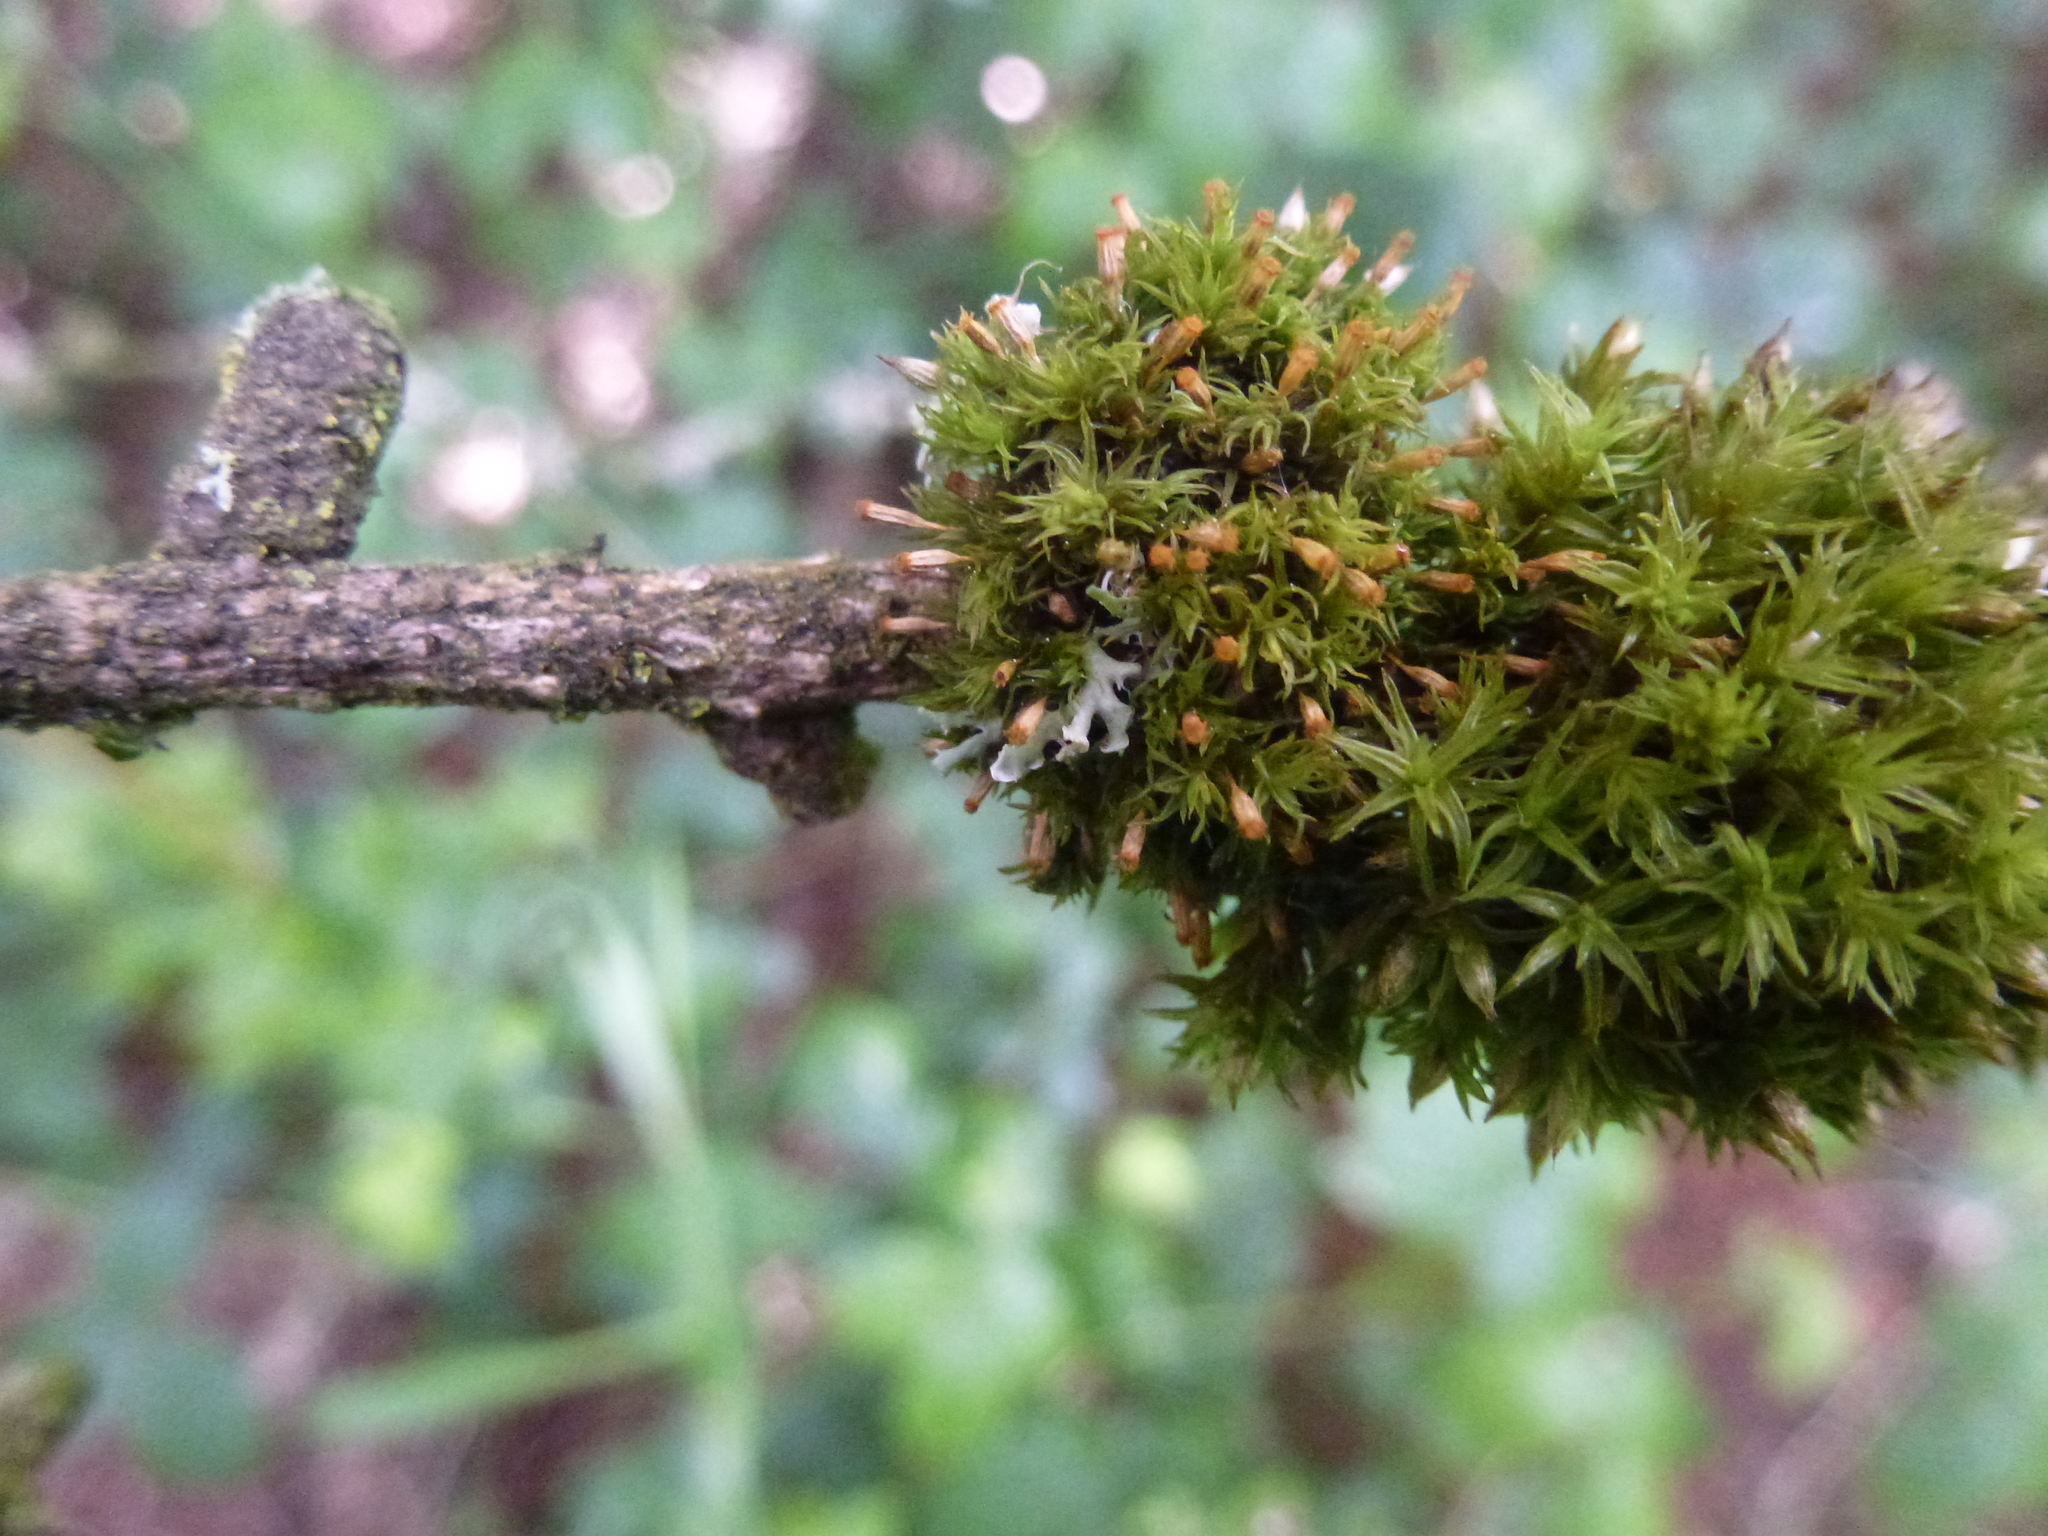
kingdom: Plantae
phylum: Bryophyta
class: Bryopsida
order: Orthotrichales
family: Orthotrichaceae
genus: Orthotrichum
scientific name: Orthotrichum pulchellum
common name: Elegant bristle-moss
